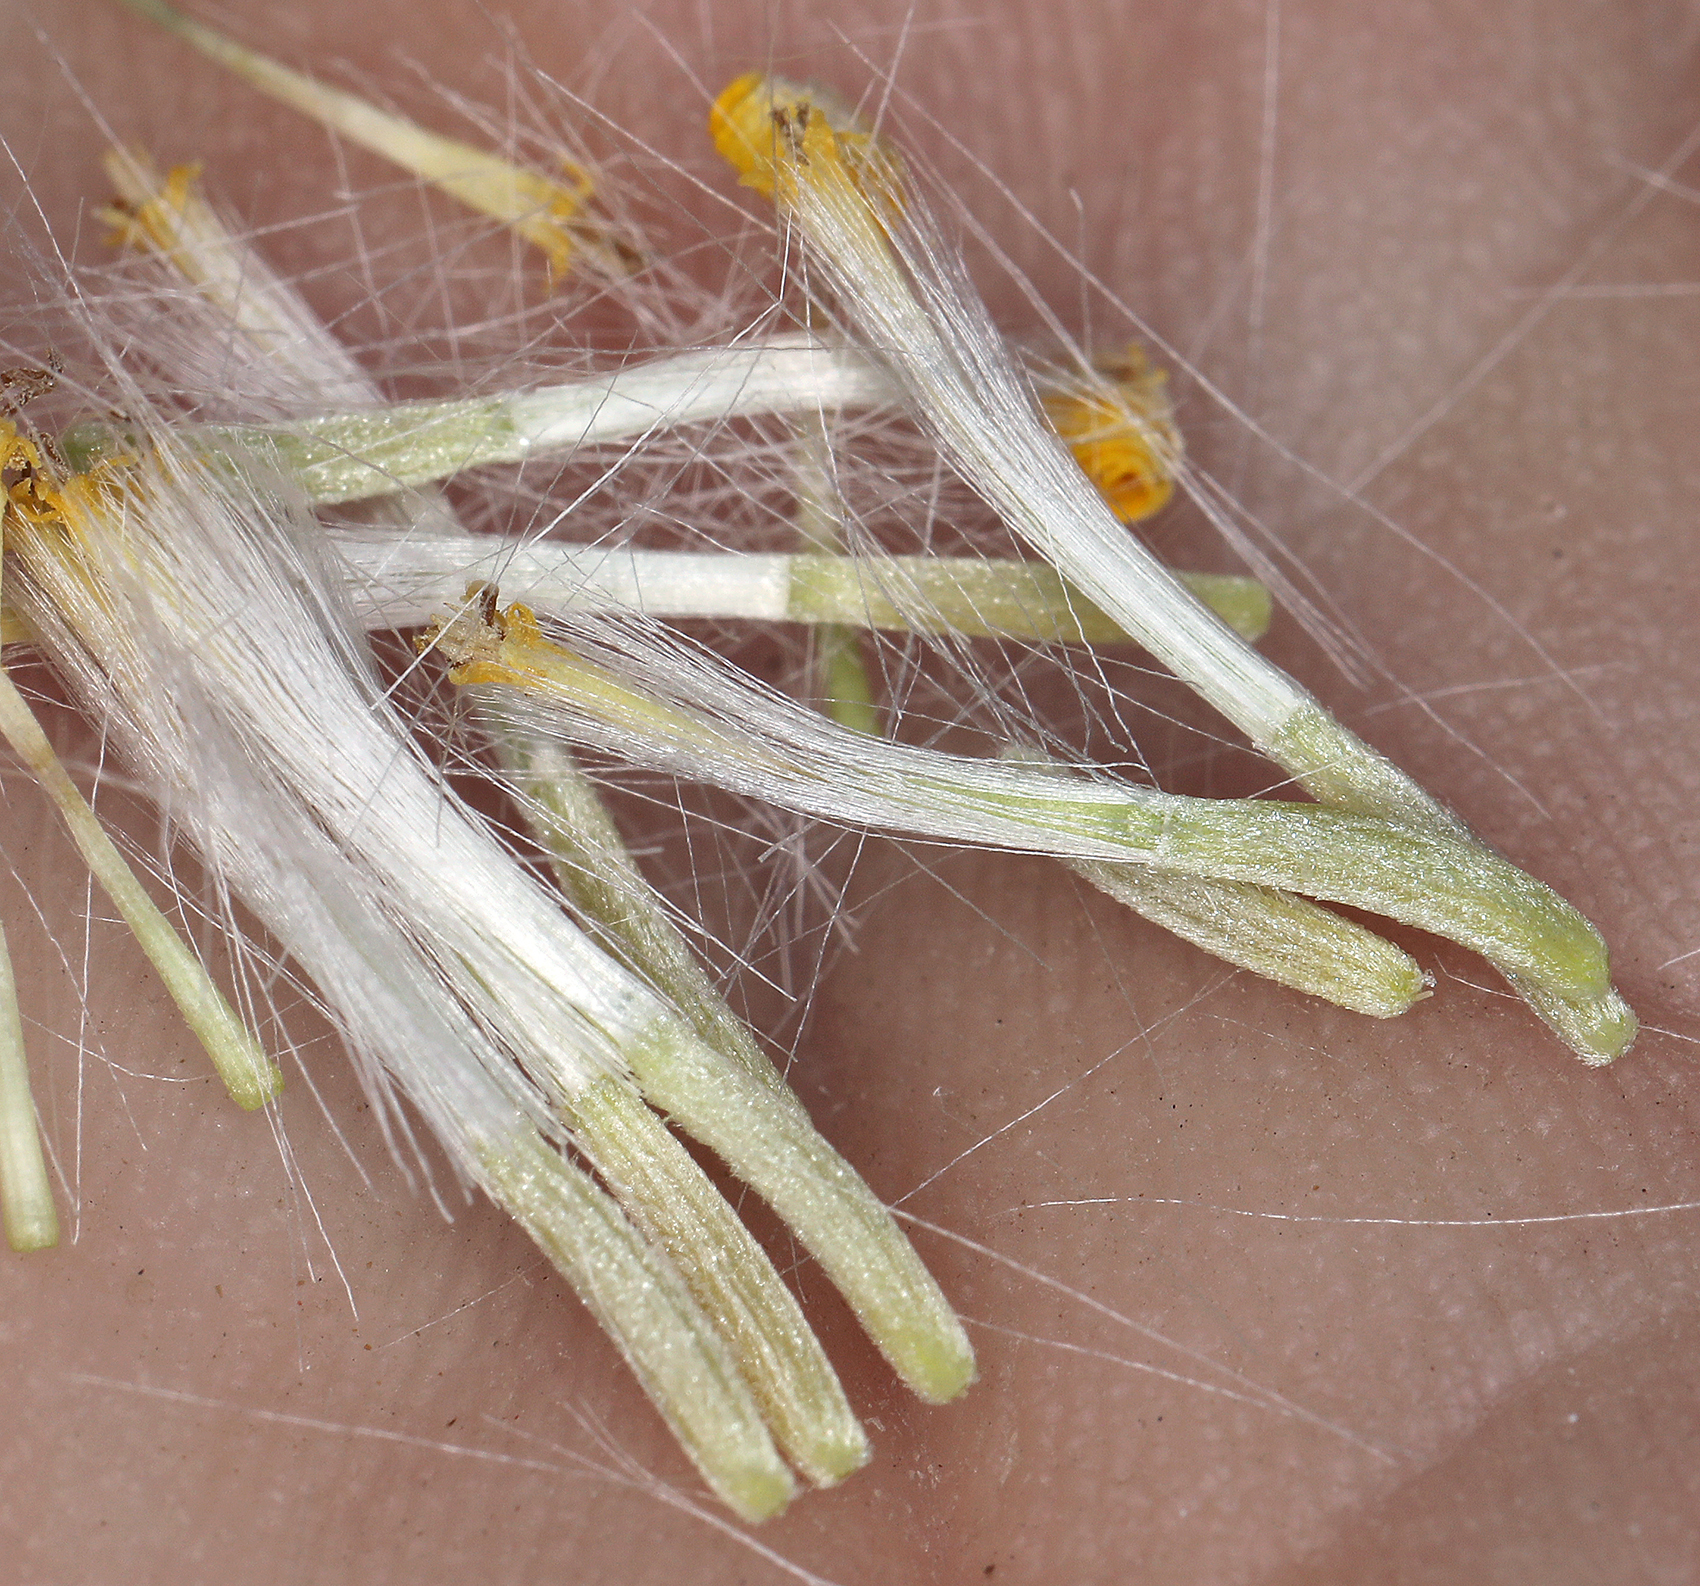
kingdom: Plantae
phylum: Tracheophyta
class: Magnoliopsida
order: Asterales
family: Asteraceae
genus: Senecio
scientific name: Senecio flaccidus
